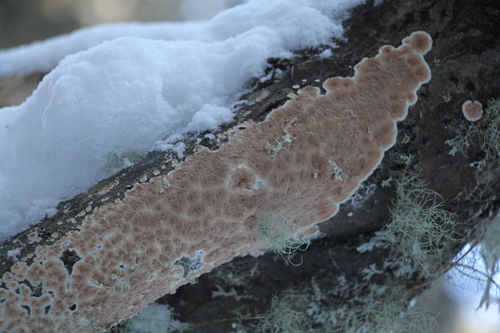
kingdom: Fungi
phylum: Basidiomycota
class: Agaricomycetes
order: Agaricales
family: Physalacriaceae
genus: Cylindrobasidium
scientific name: Cylindrobasidium evolvens
